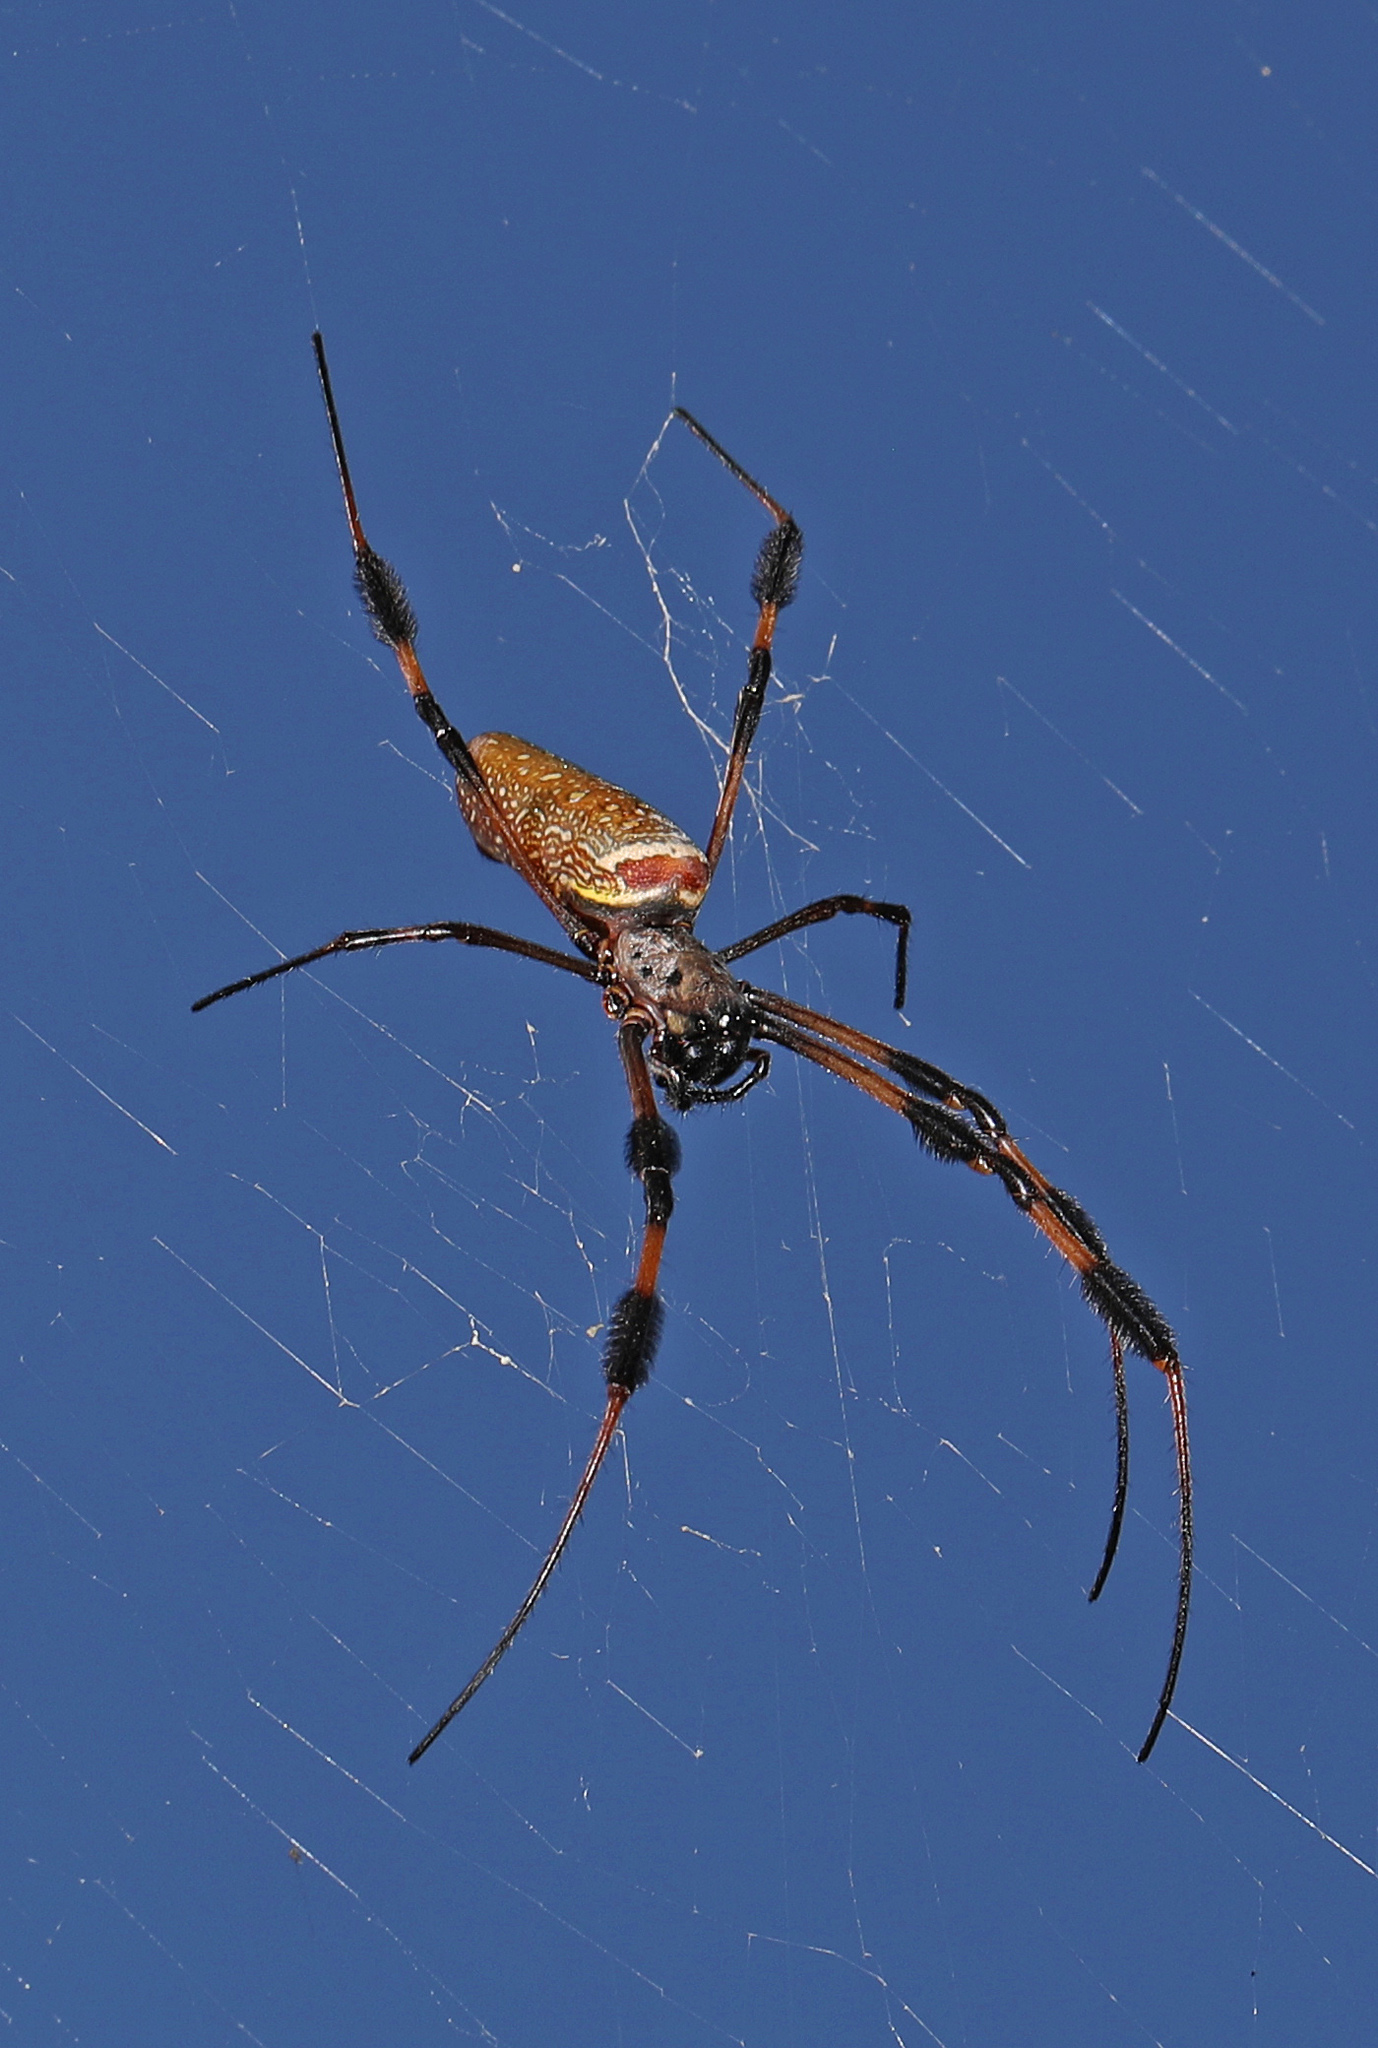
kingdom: Animalia
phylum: Arthropoda
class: Arachnida
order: Araneae
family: Araneidae
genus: Trichonephila
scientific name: Trichonephila clavipes
